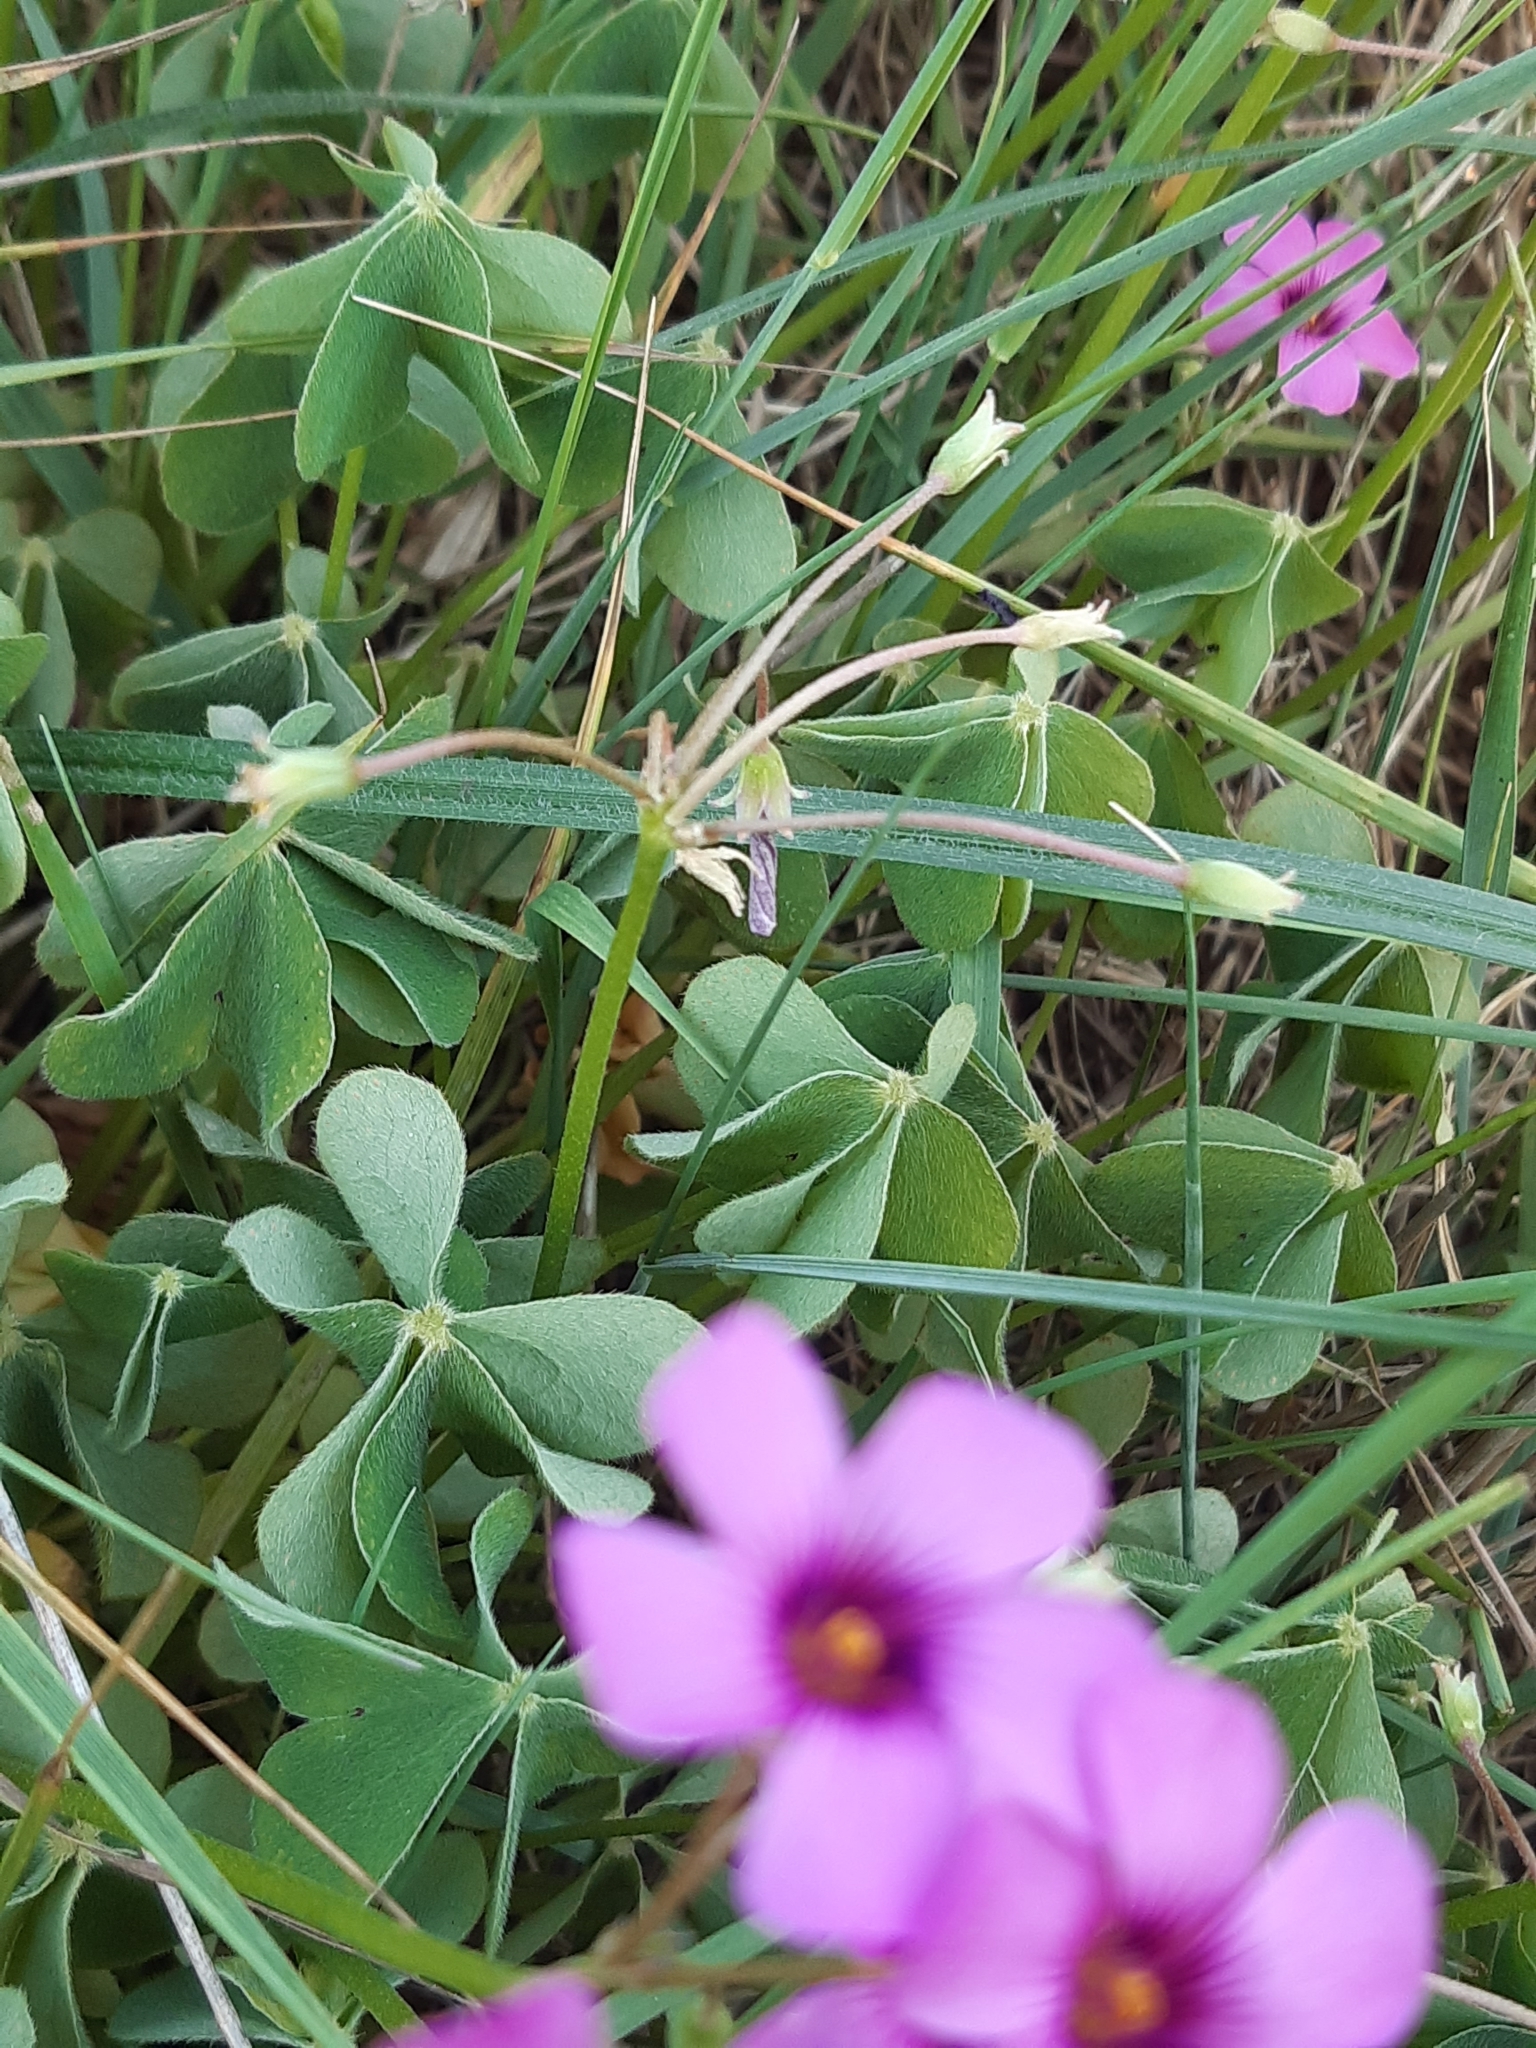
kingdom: Plantae
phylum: Tracheophyta
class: Magnoliopsida
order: Oxalidales
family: Oxalidaceae
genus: Oxalis
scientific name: Oxalis articulata
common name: Pink-sorrel
